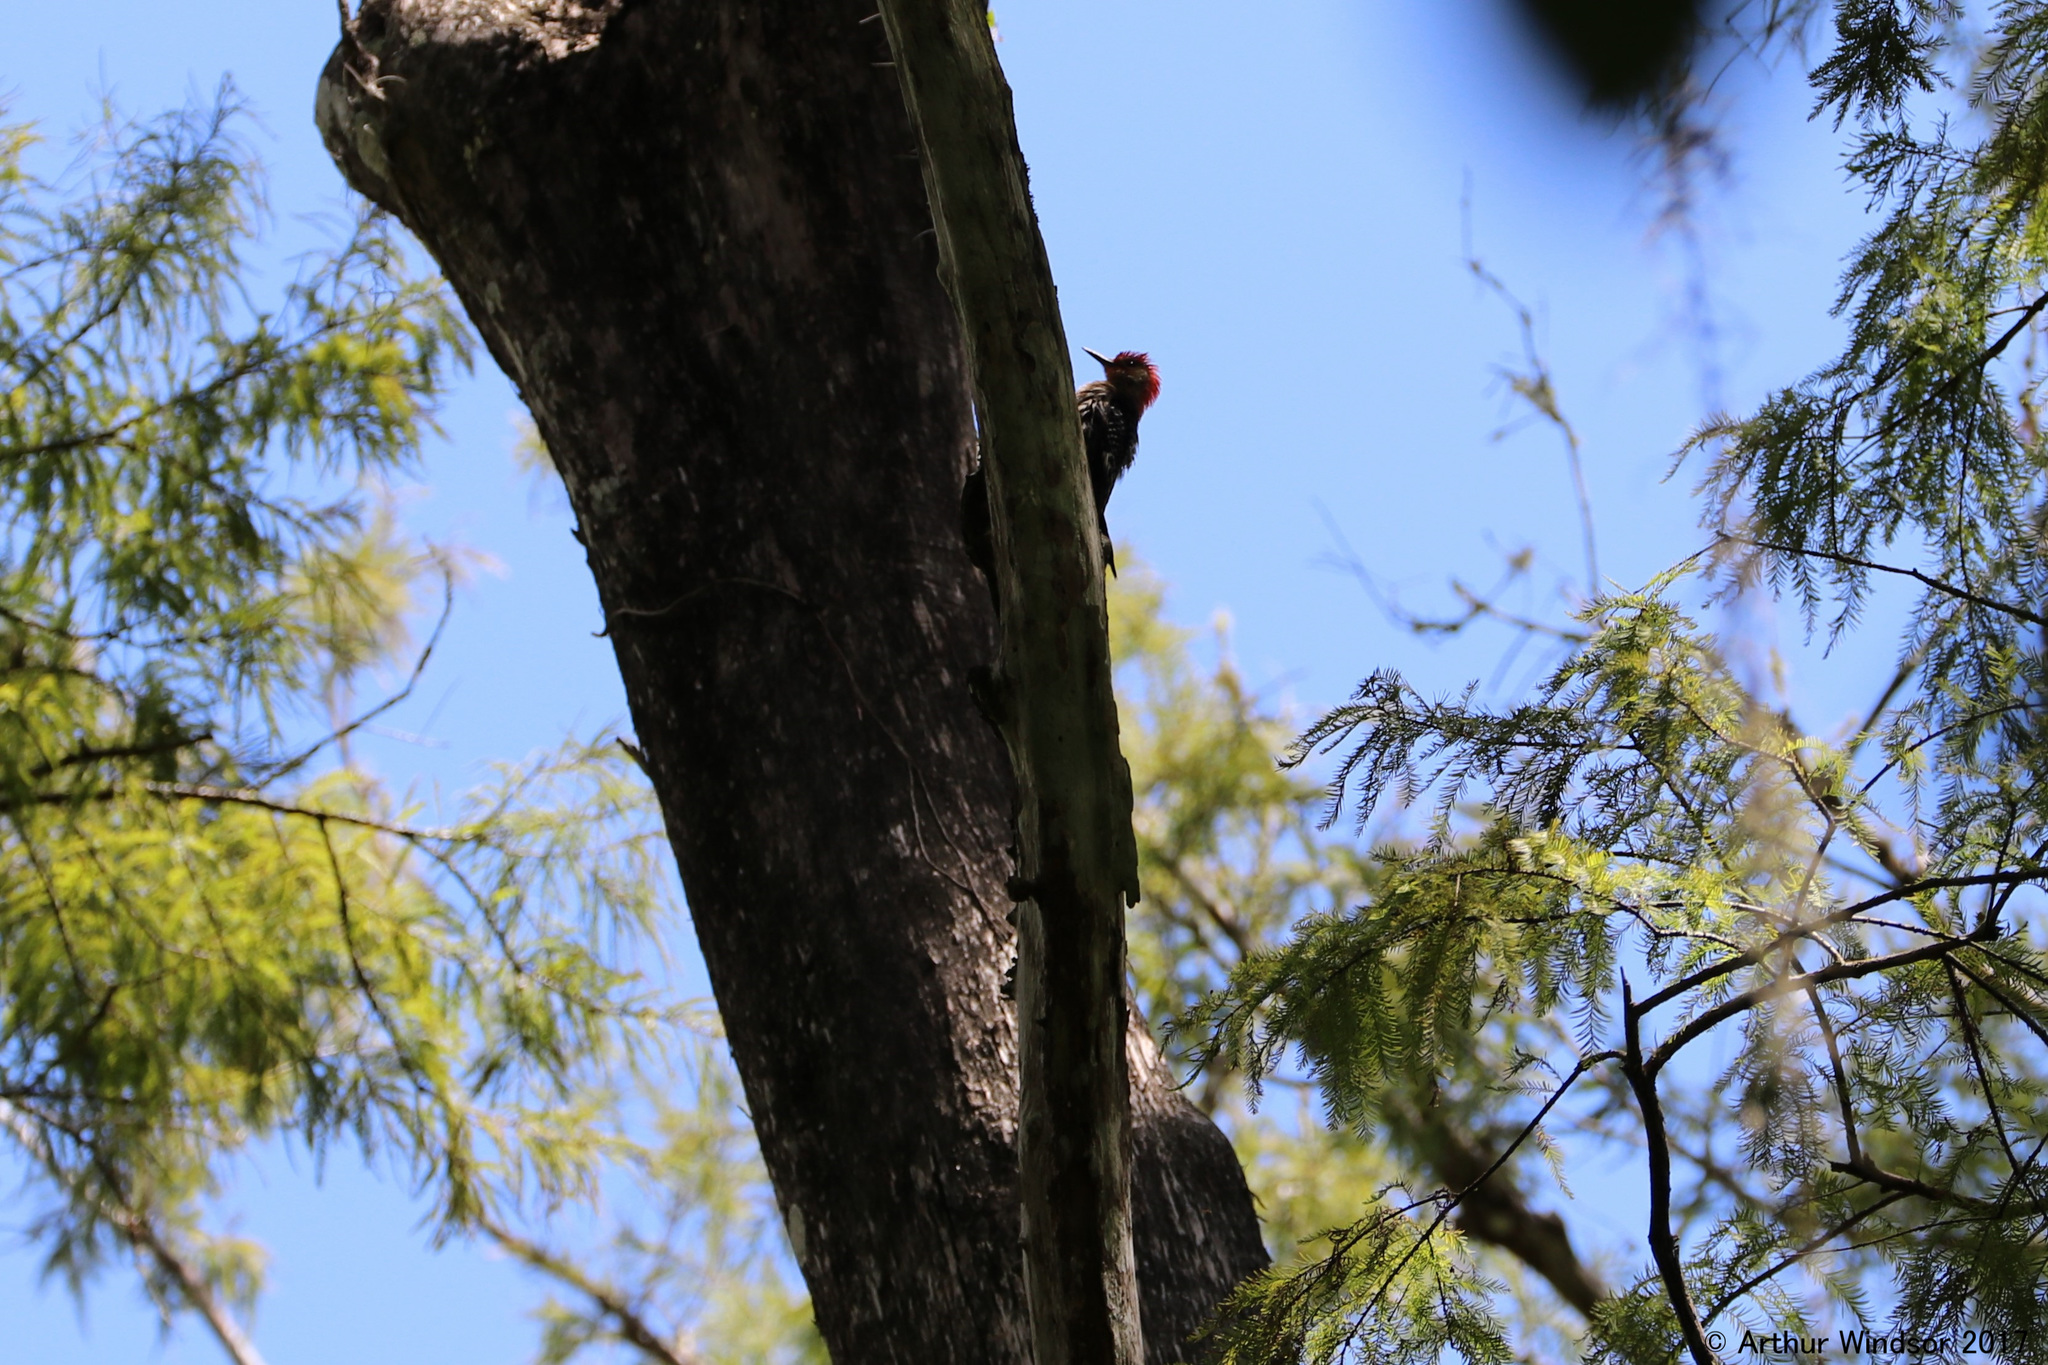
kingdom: Animalia
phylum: Chordata
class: Aves
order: Piciformes
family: Picidae
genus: Melanerpes
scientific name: Melanerpes carolinus
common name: Red-bellied woodpecker
